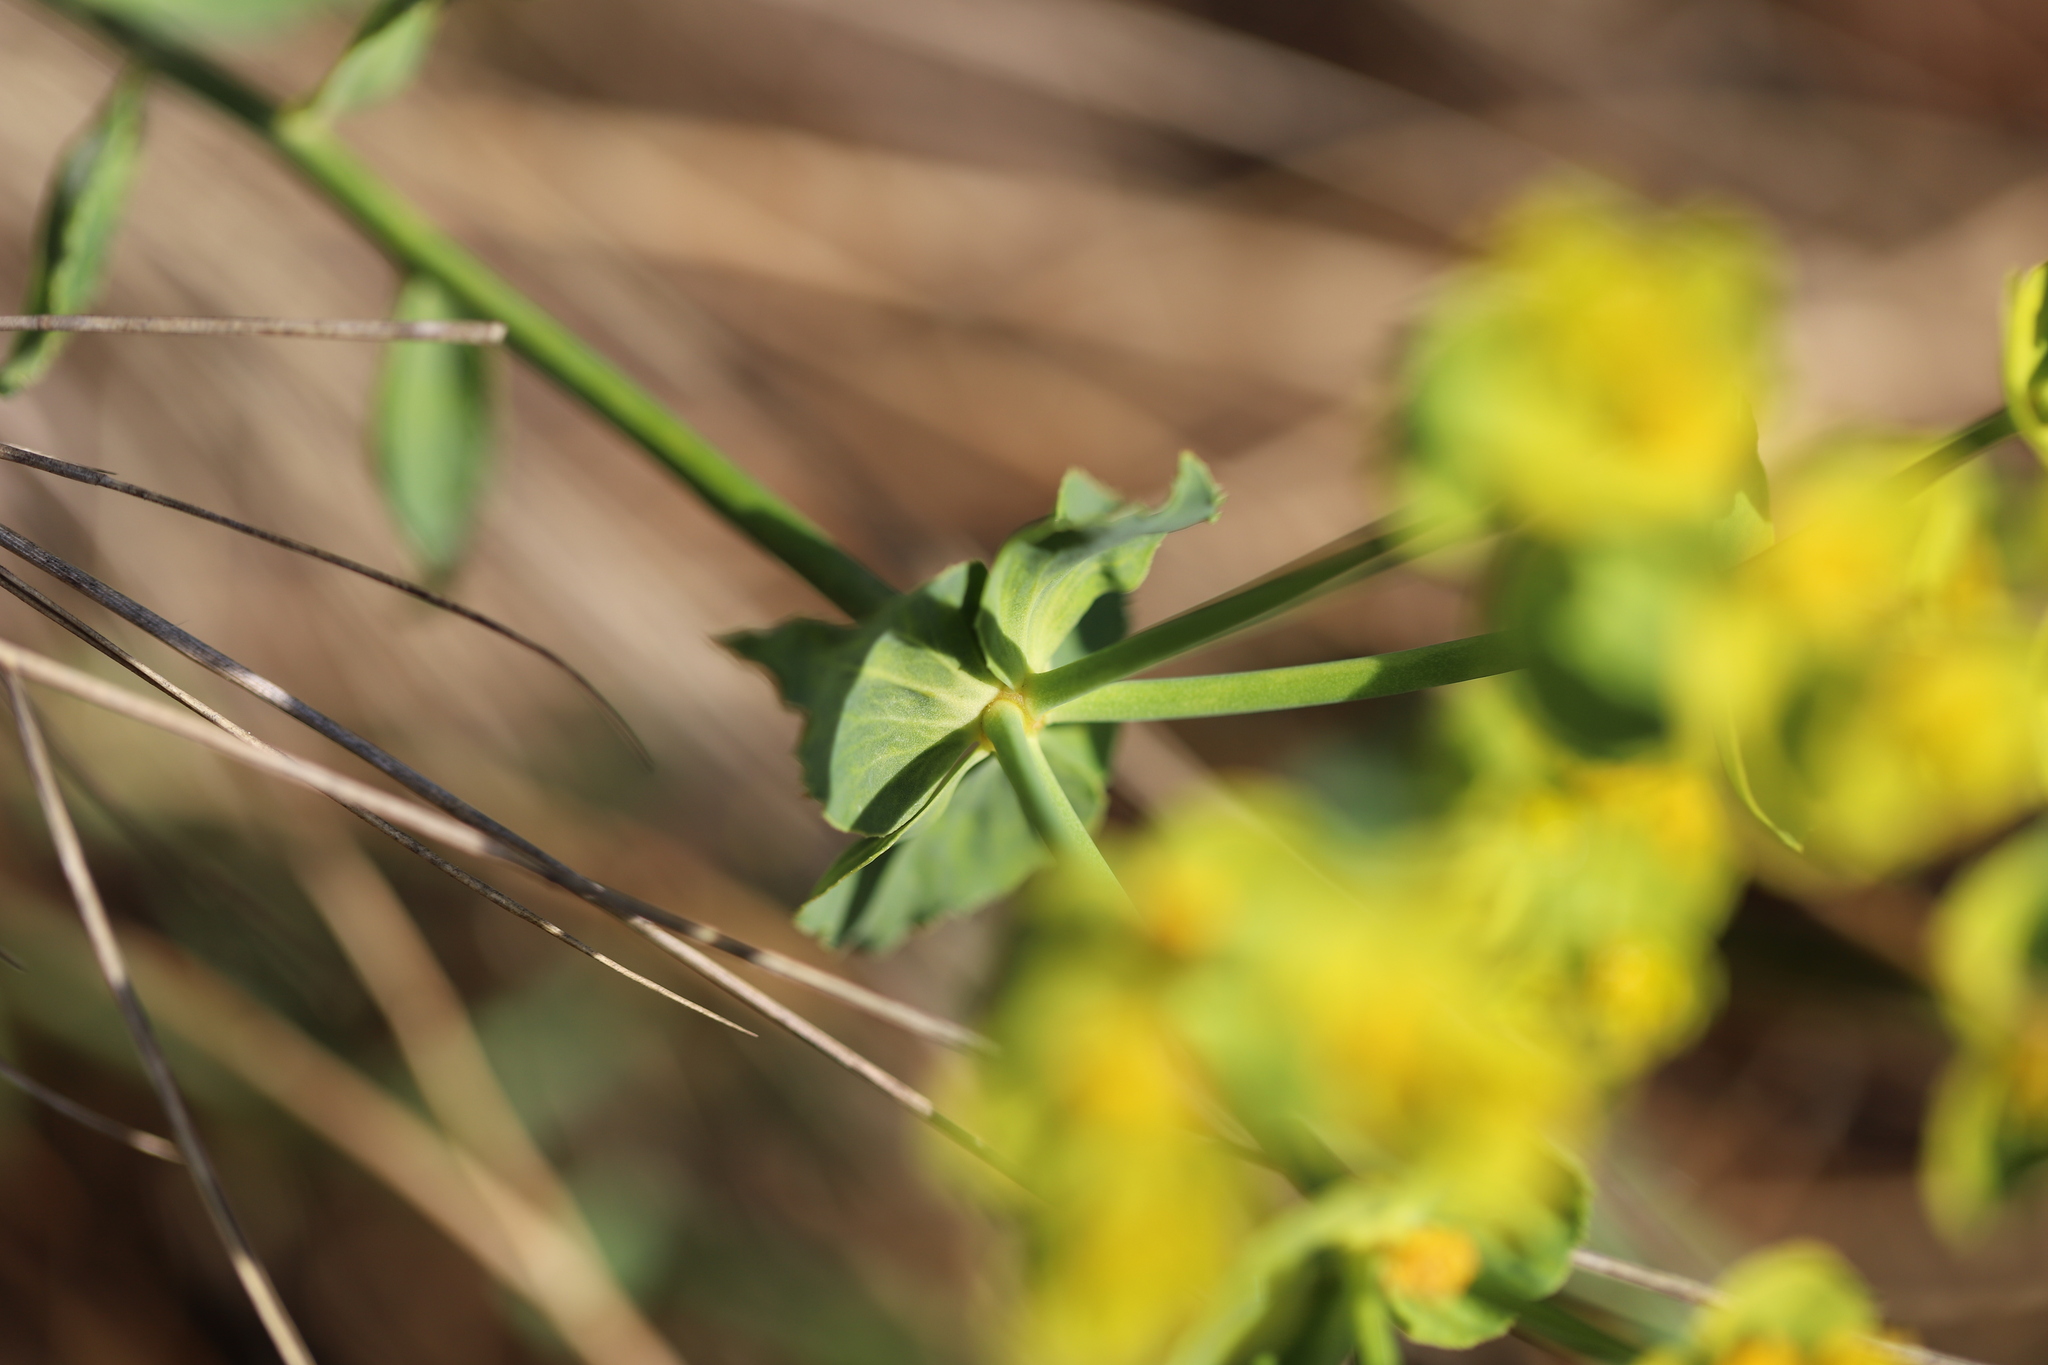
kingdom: Plantae
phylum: Tracheophyta
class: Magnoliopsida
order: Malpighiales
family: Euphorbiaceae
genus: Euphorbia
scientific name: Euphorbia serrata
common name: Serrate spurge
